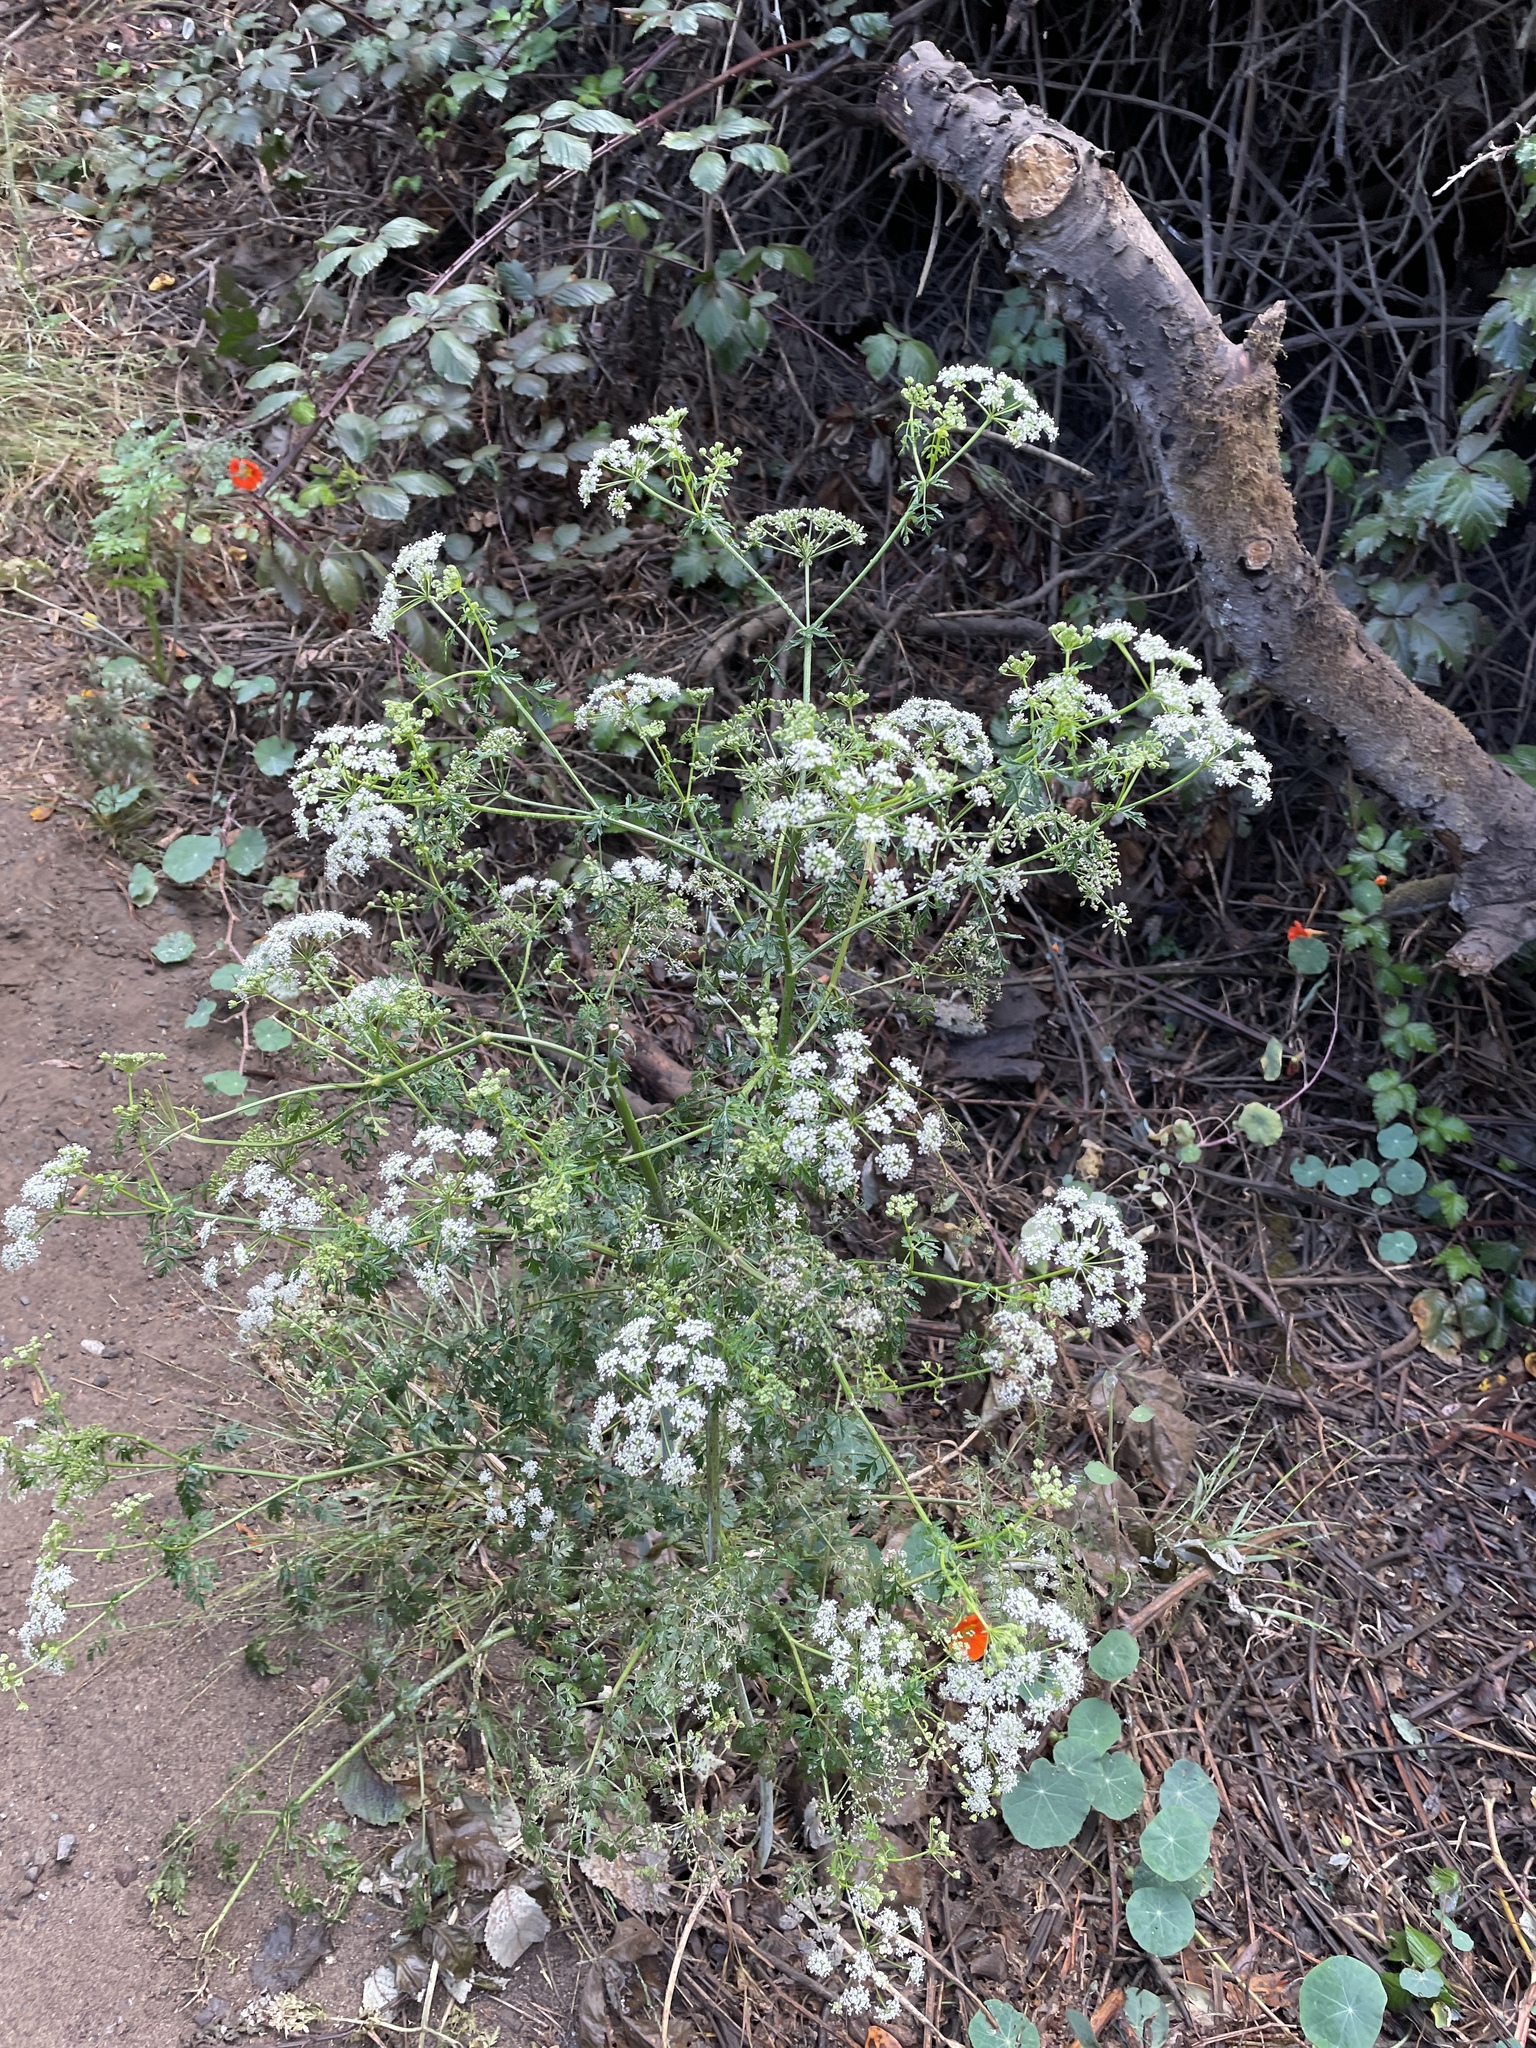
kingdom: Plantae
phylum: Tracheophyta
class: Magnoliopsida
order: Apiales
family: Apiaceae
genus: Conium
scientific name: Conium maculatum
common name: Hemlock
